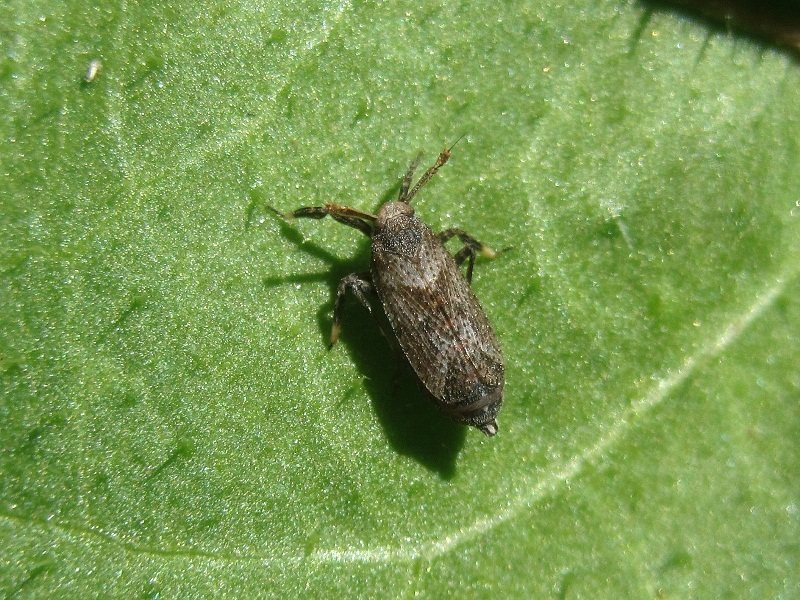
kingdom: Animalia
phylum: Arthropoda
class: Insecta
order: Hemiptera
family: Delphacidae
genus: Asiraca
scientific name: Asiraca clavicornis
